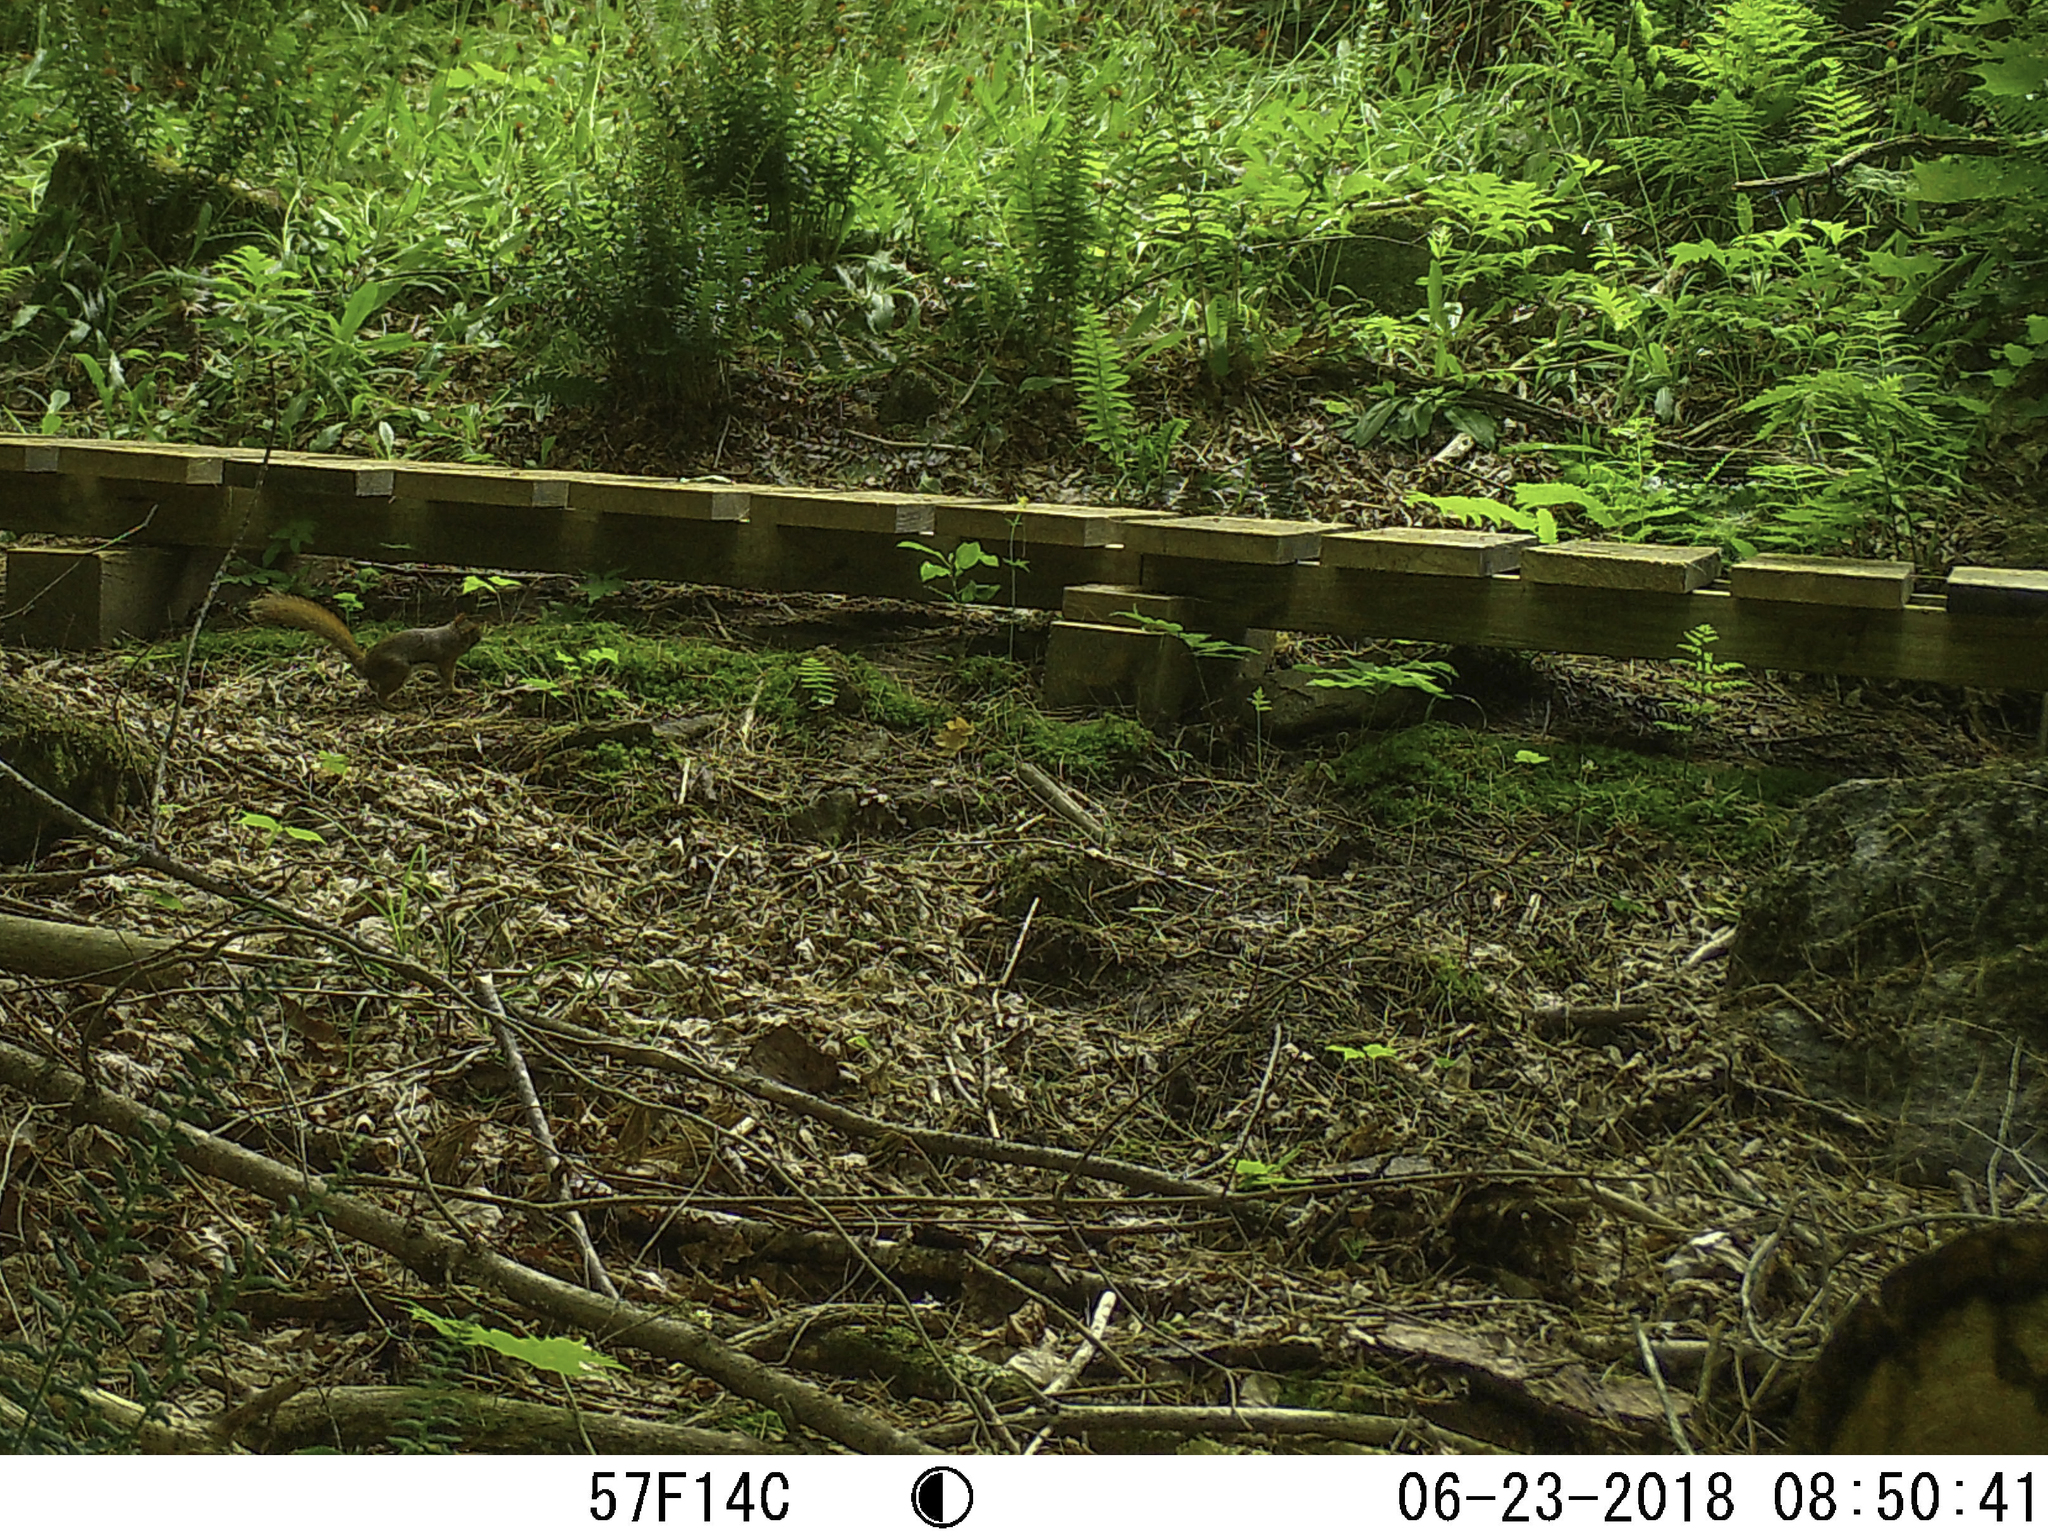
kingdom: Animalia
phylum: Chordata
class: Mammalia
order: Rodentia
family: Sciuridae
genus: Tamiasciurus
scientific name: Tamiasciurus hudsonicus
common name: Red squirrel
